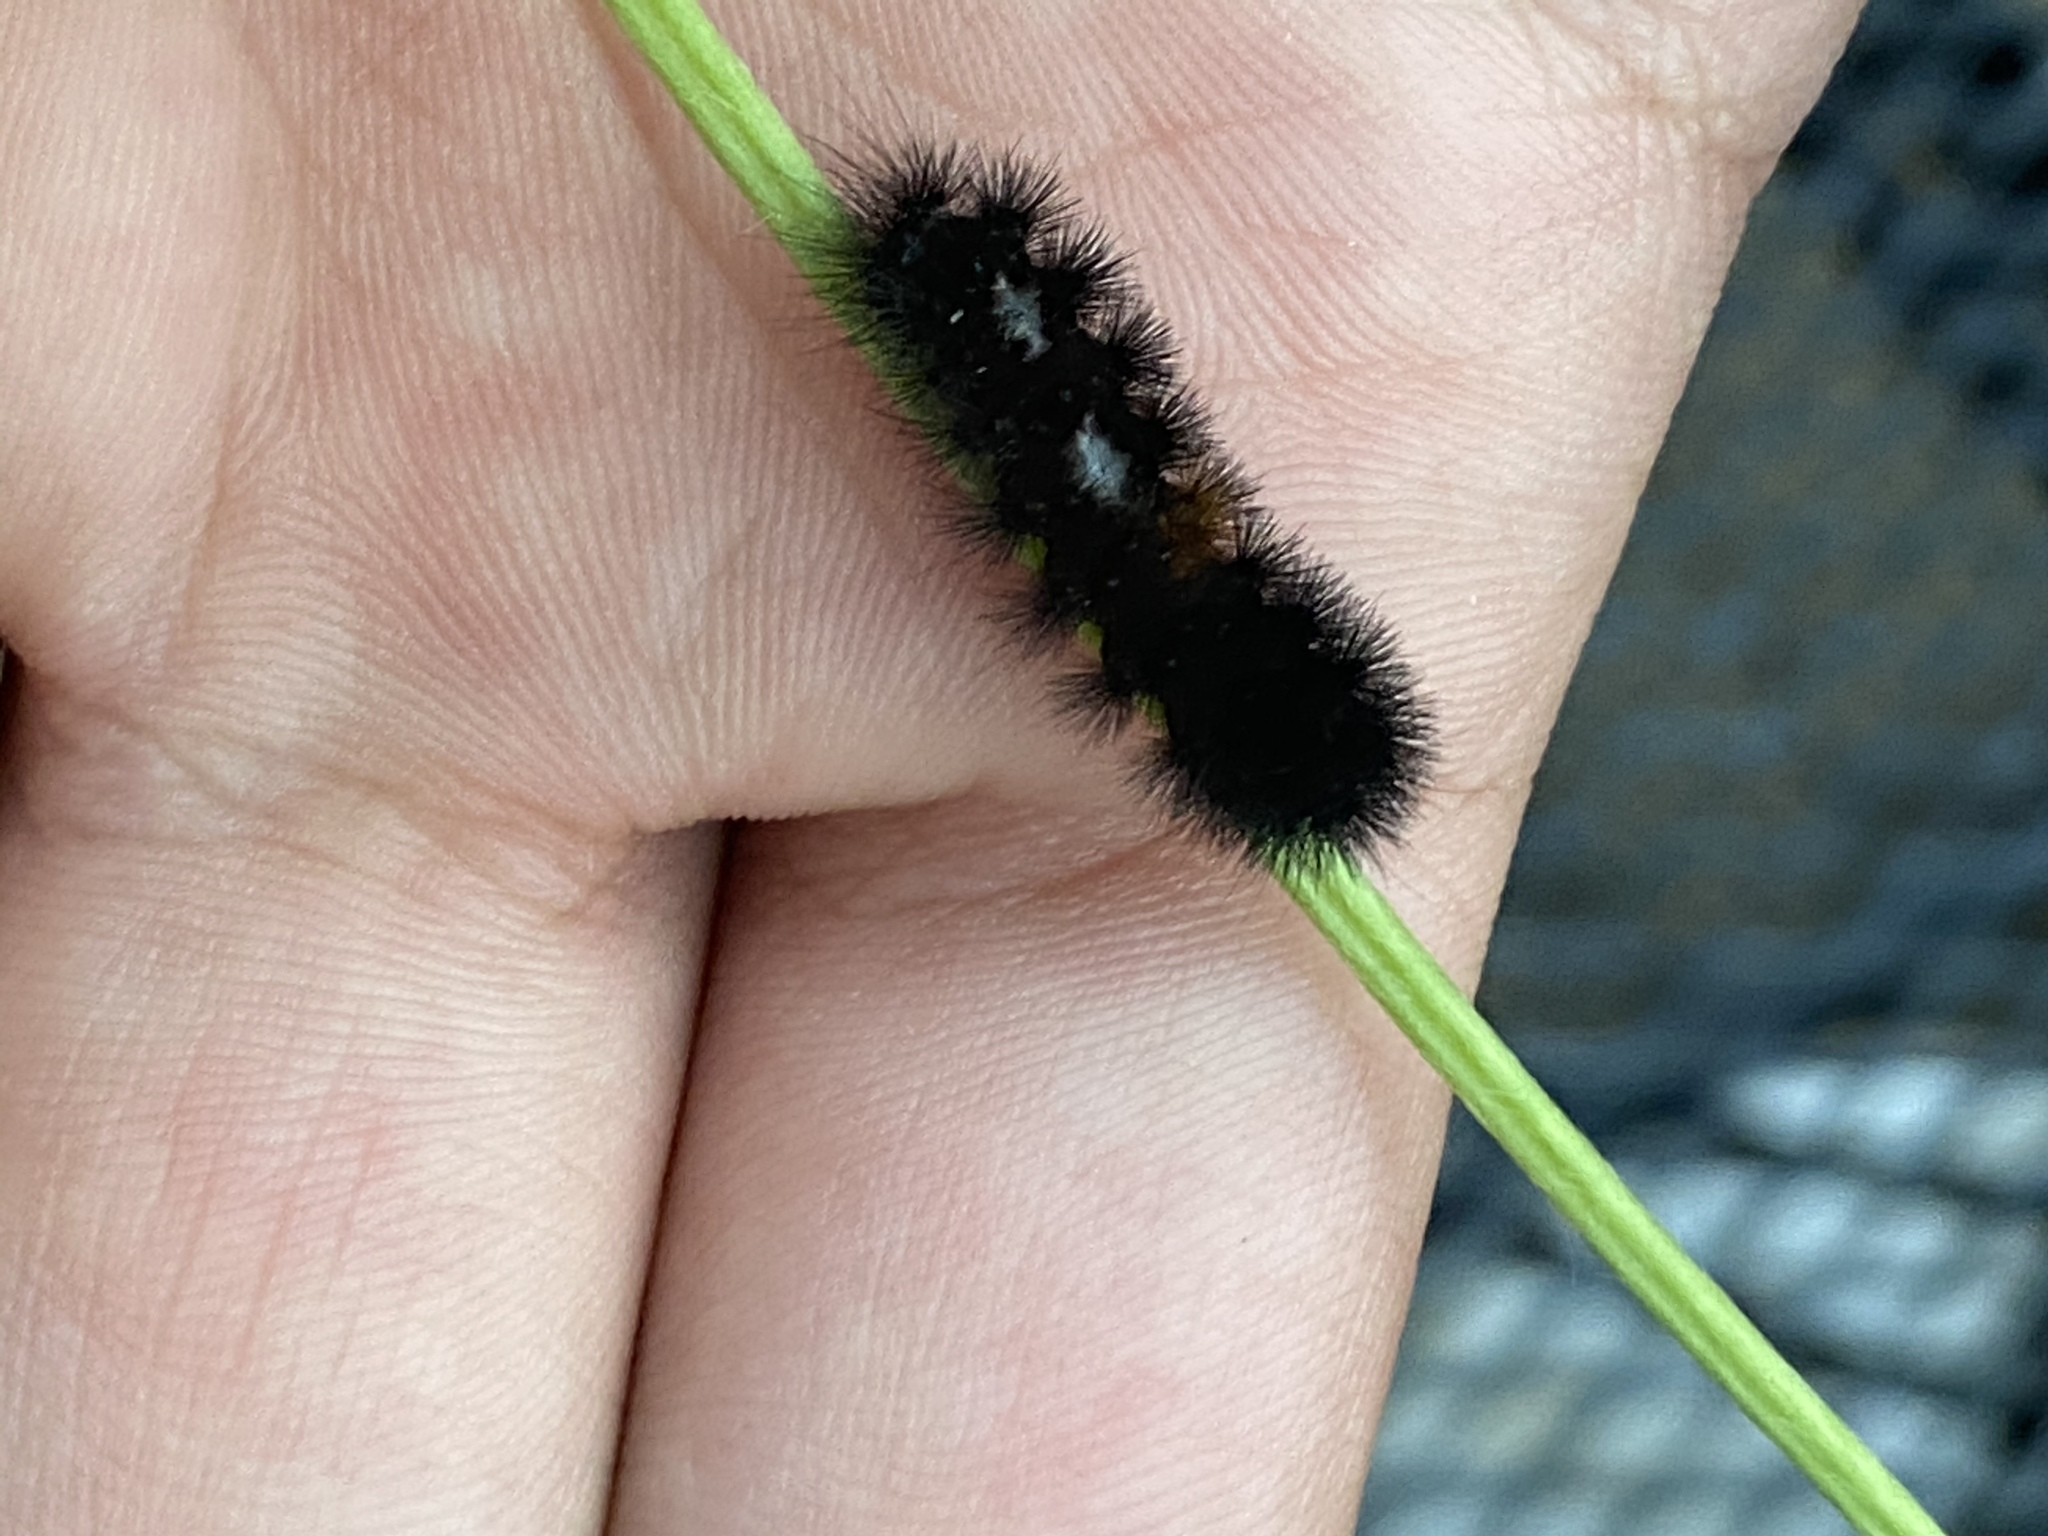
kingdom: Animalia
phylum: Arthropoda
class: Insecta
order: Lepidoptera
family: Erebidae
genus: Pyrrharctia
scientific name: Pyrrharctia isabella
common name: Isabella tiger moth
